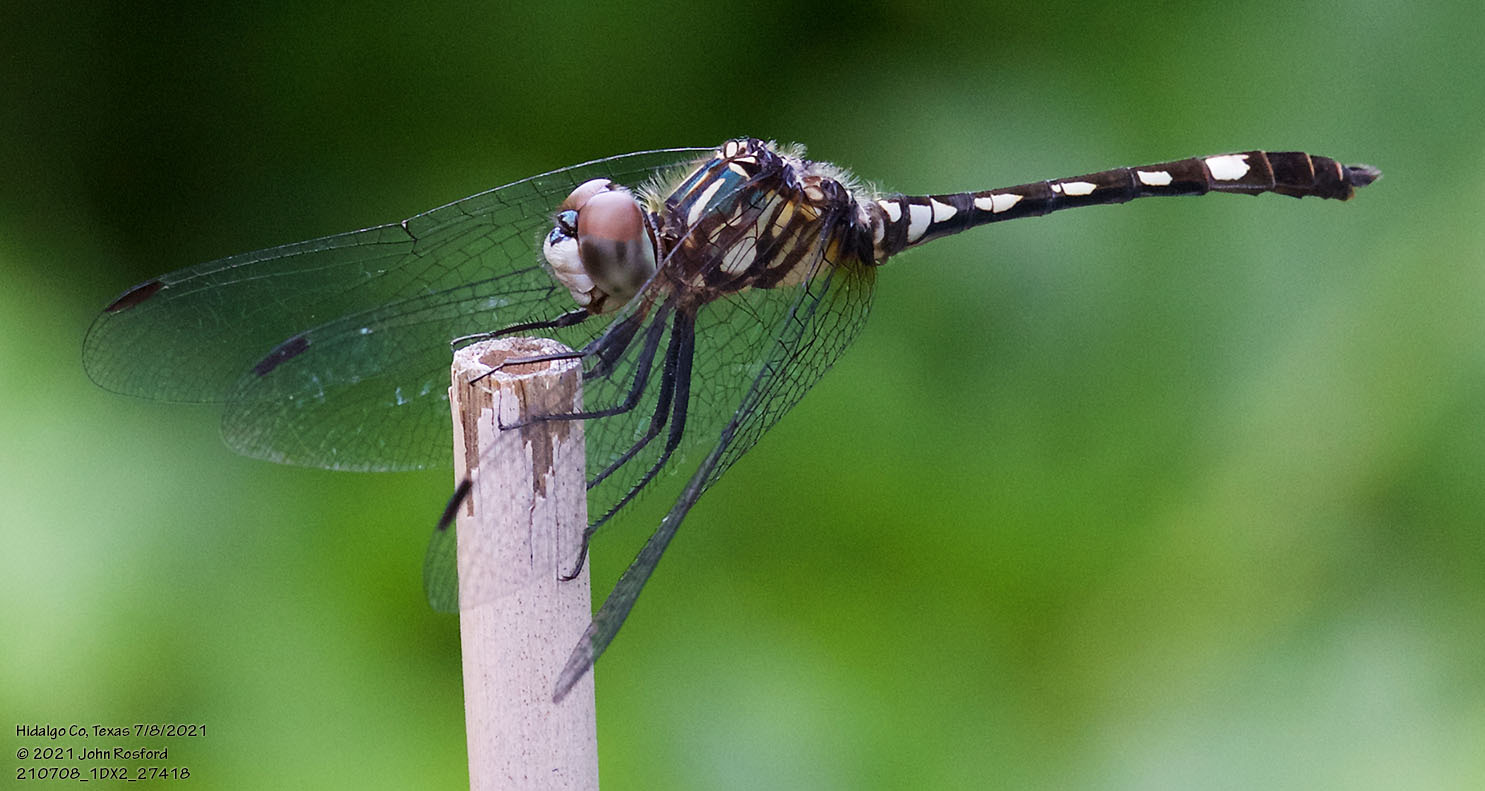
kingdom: Animalia
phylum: Arthropoda
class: Insecta
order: Odonata
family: Libellulidae
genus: Micrathyria
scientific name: Micrathyria hagenii
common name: Thornbush dasher
